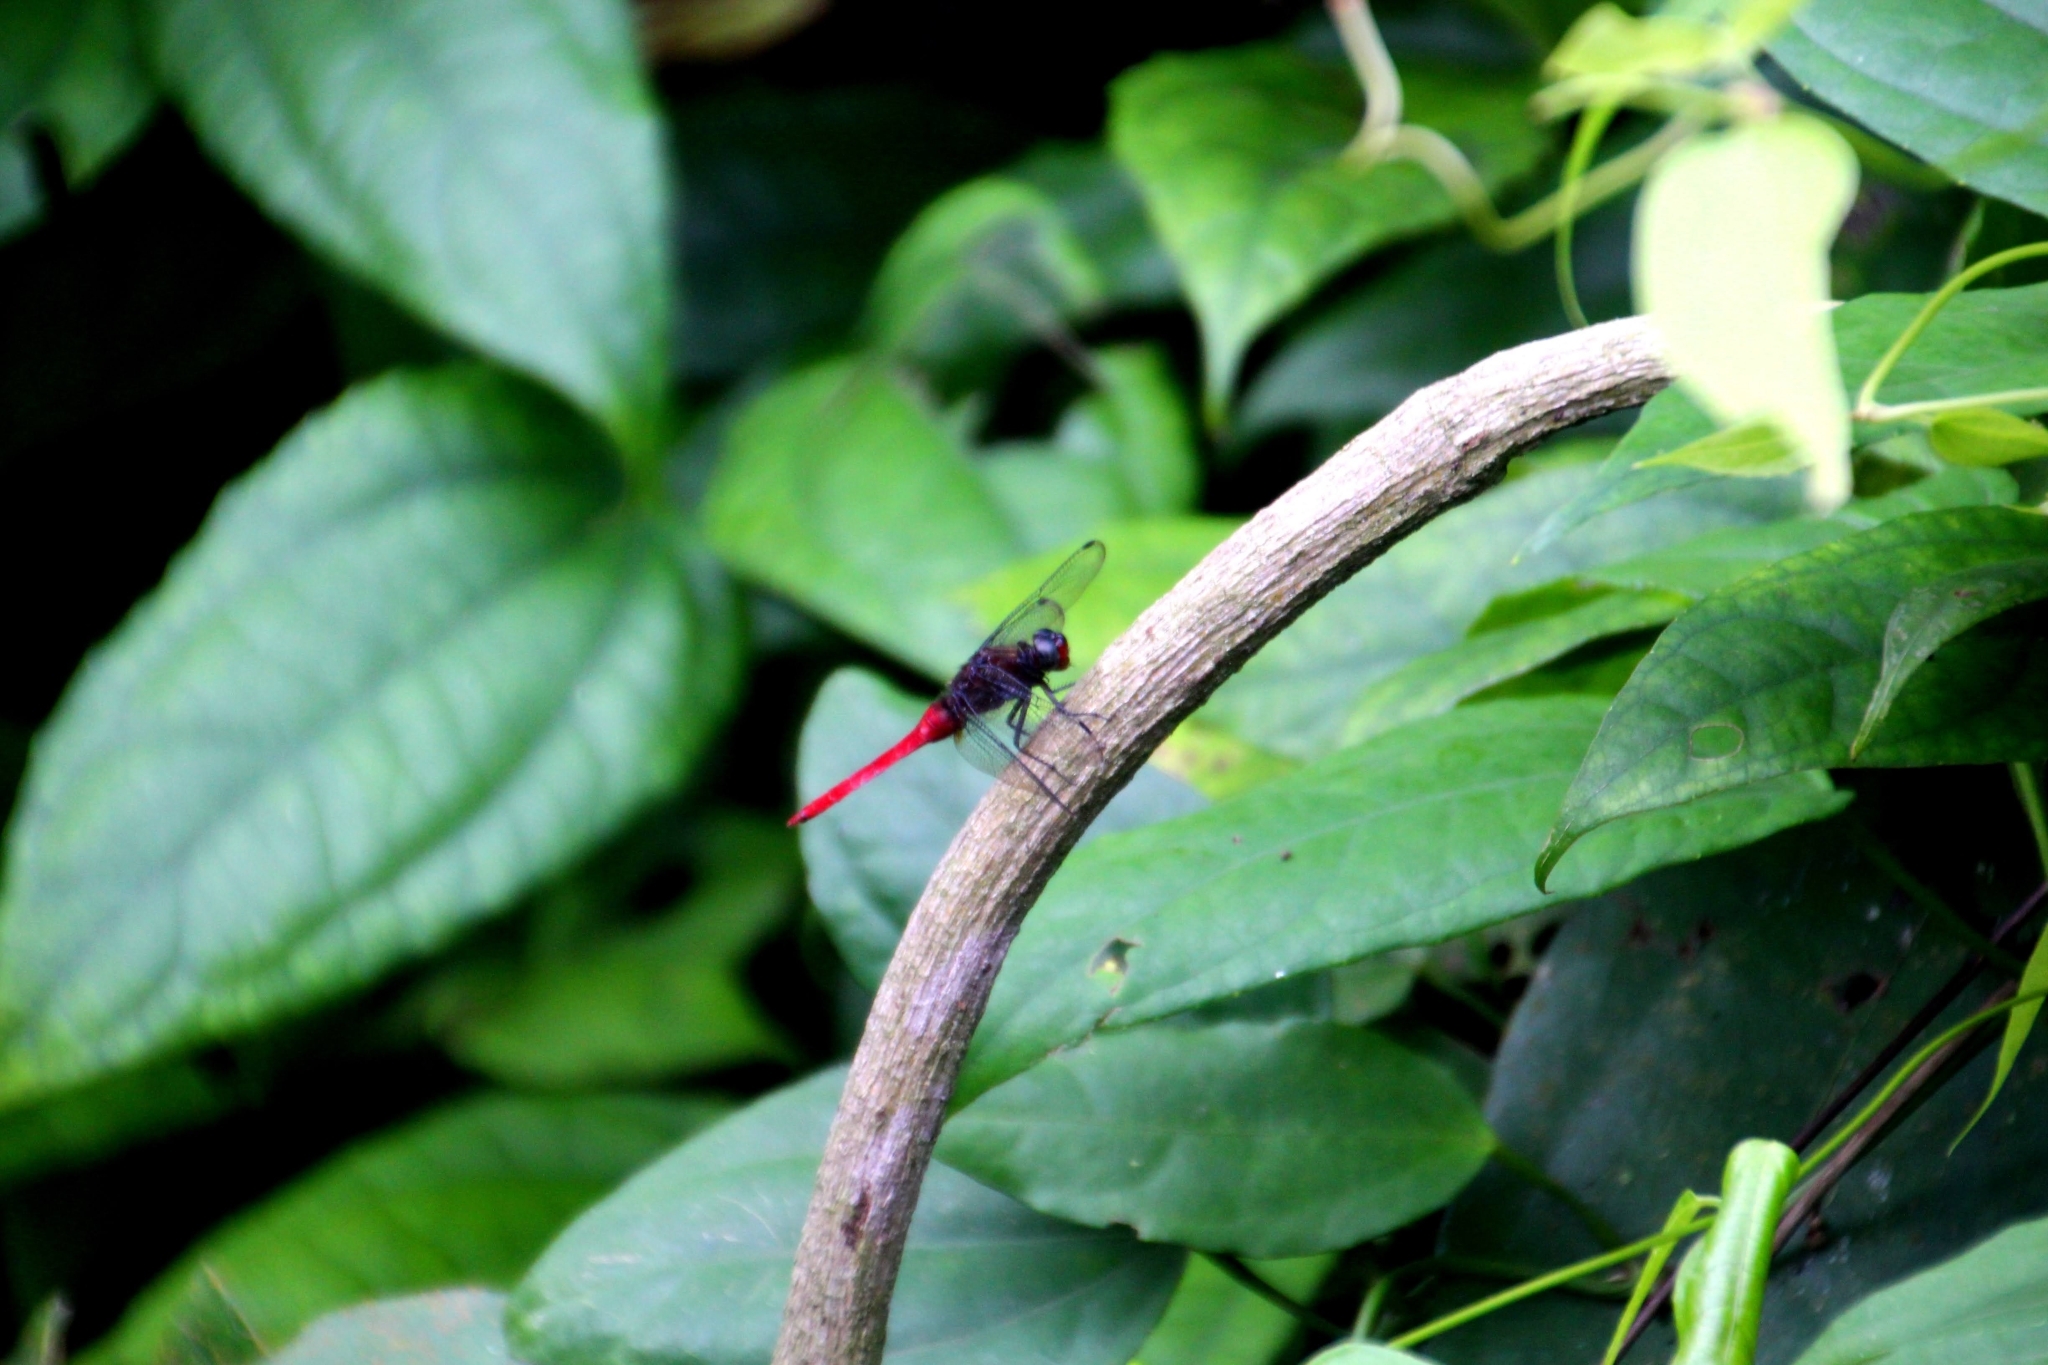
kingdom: Animalia
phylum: Arthropoda
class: Insecta
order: Odonata
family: Libellulidae
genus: Orthetrum
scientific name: Orthetrum chrysis
